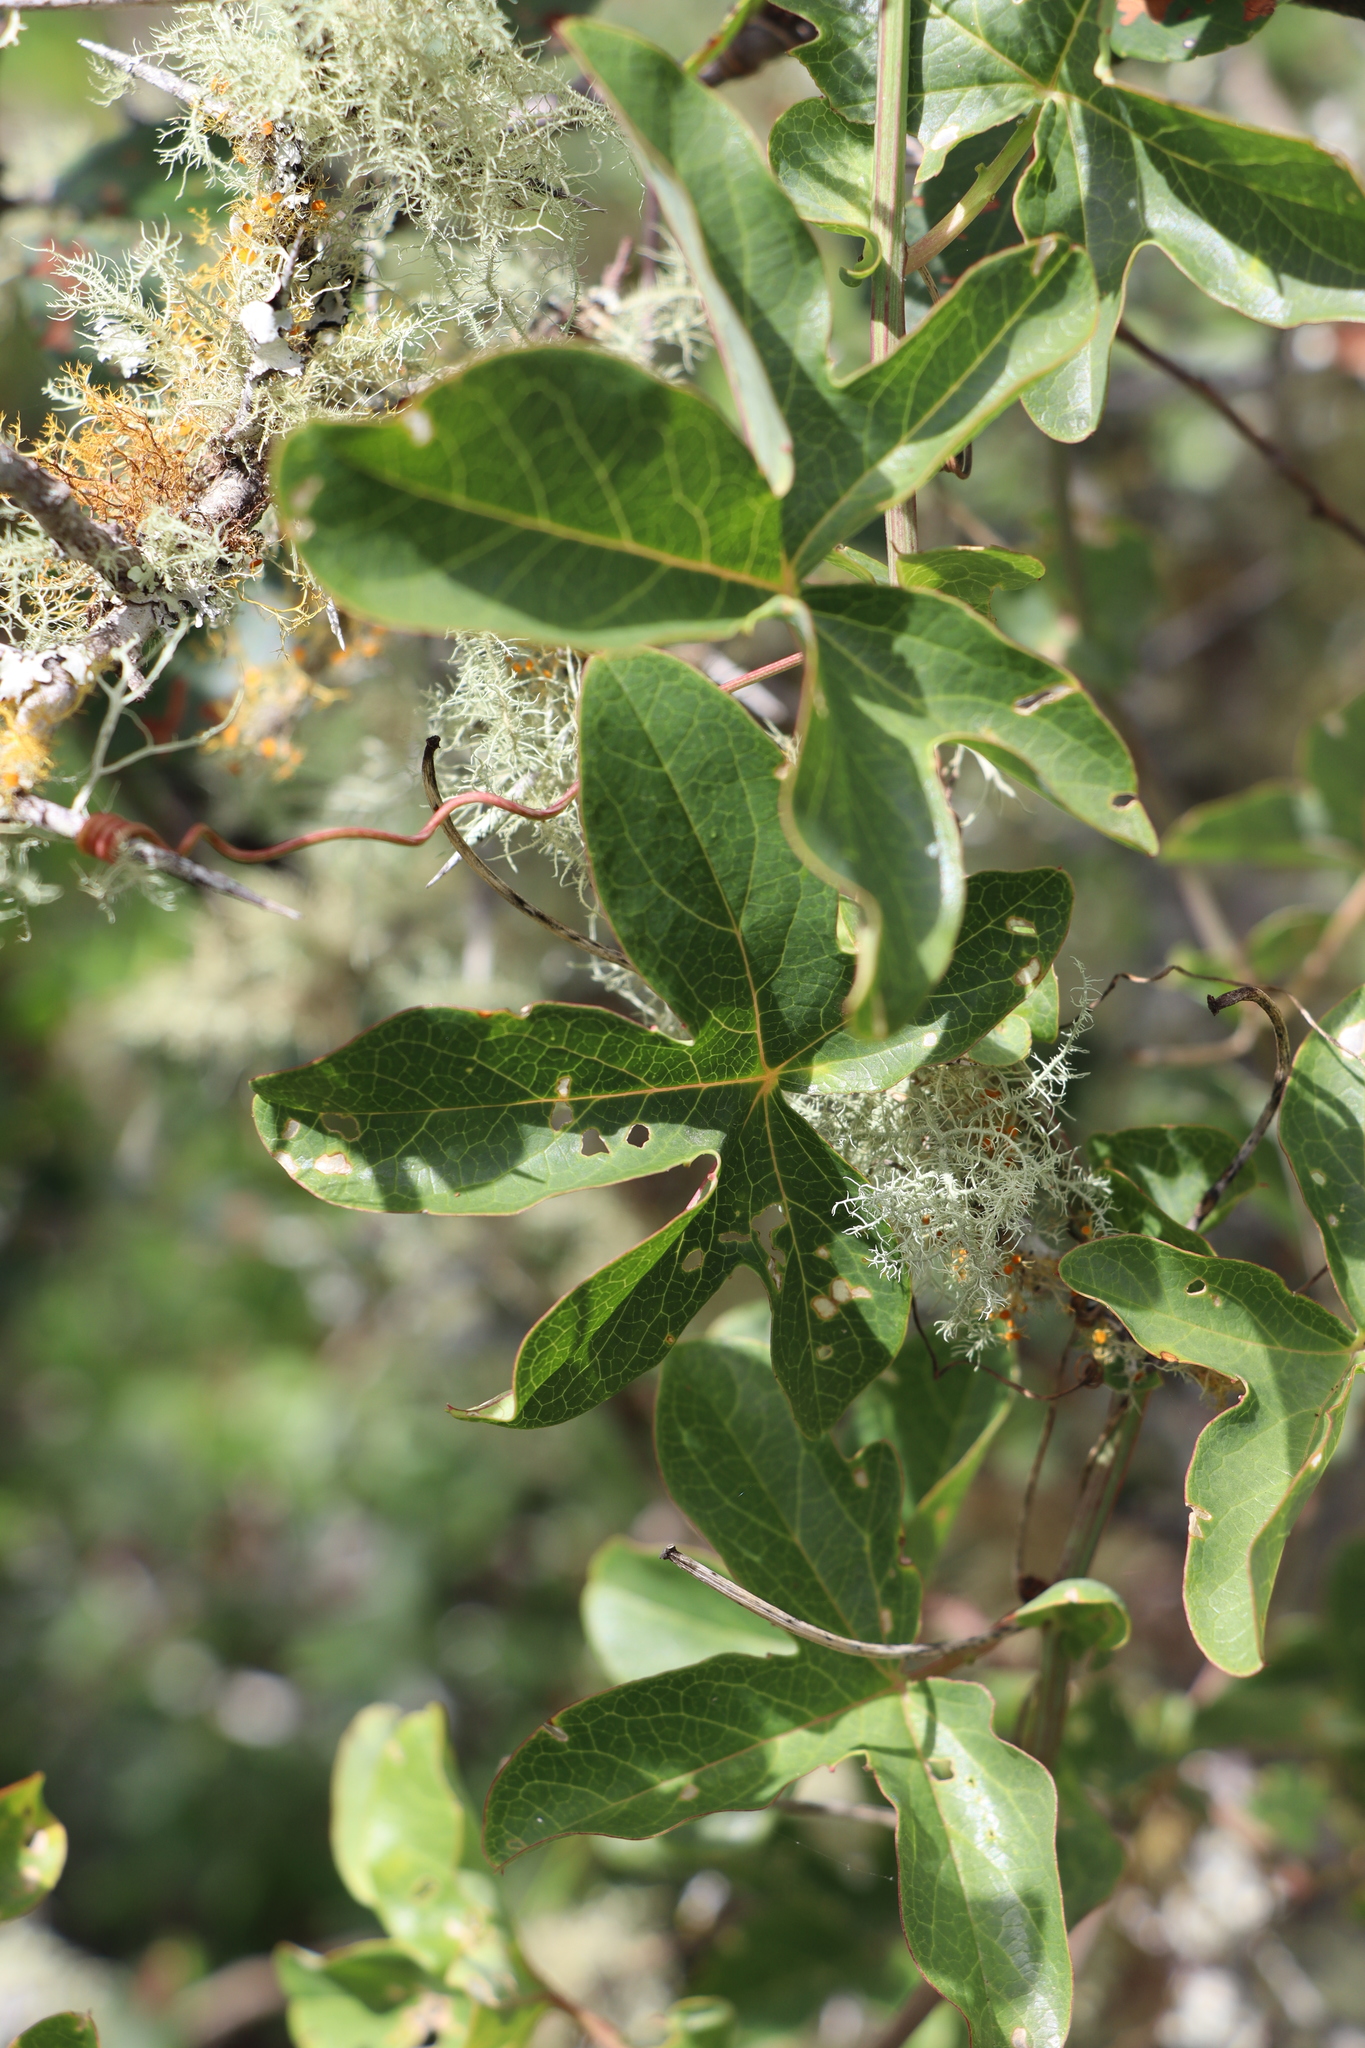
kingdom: Plantae
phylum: Tracheophyta
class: Magnoliopsida
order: Malpighiales
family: Passifloraceae
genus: Passiflora
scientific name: Passiflora caerulea
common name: Blue passionflower
